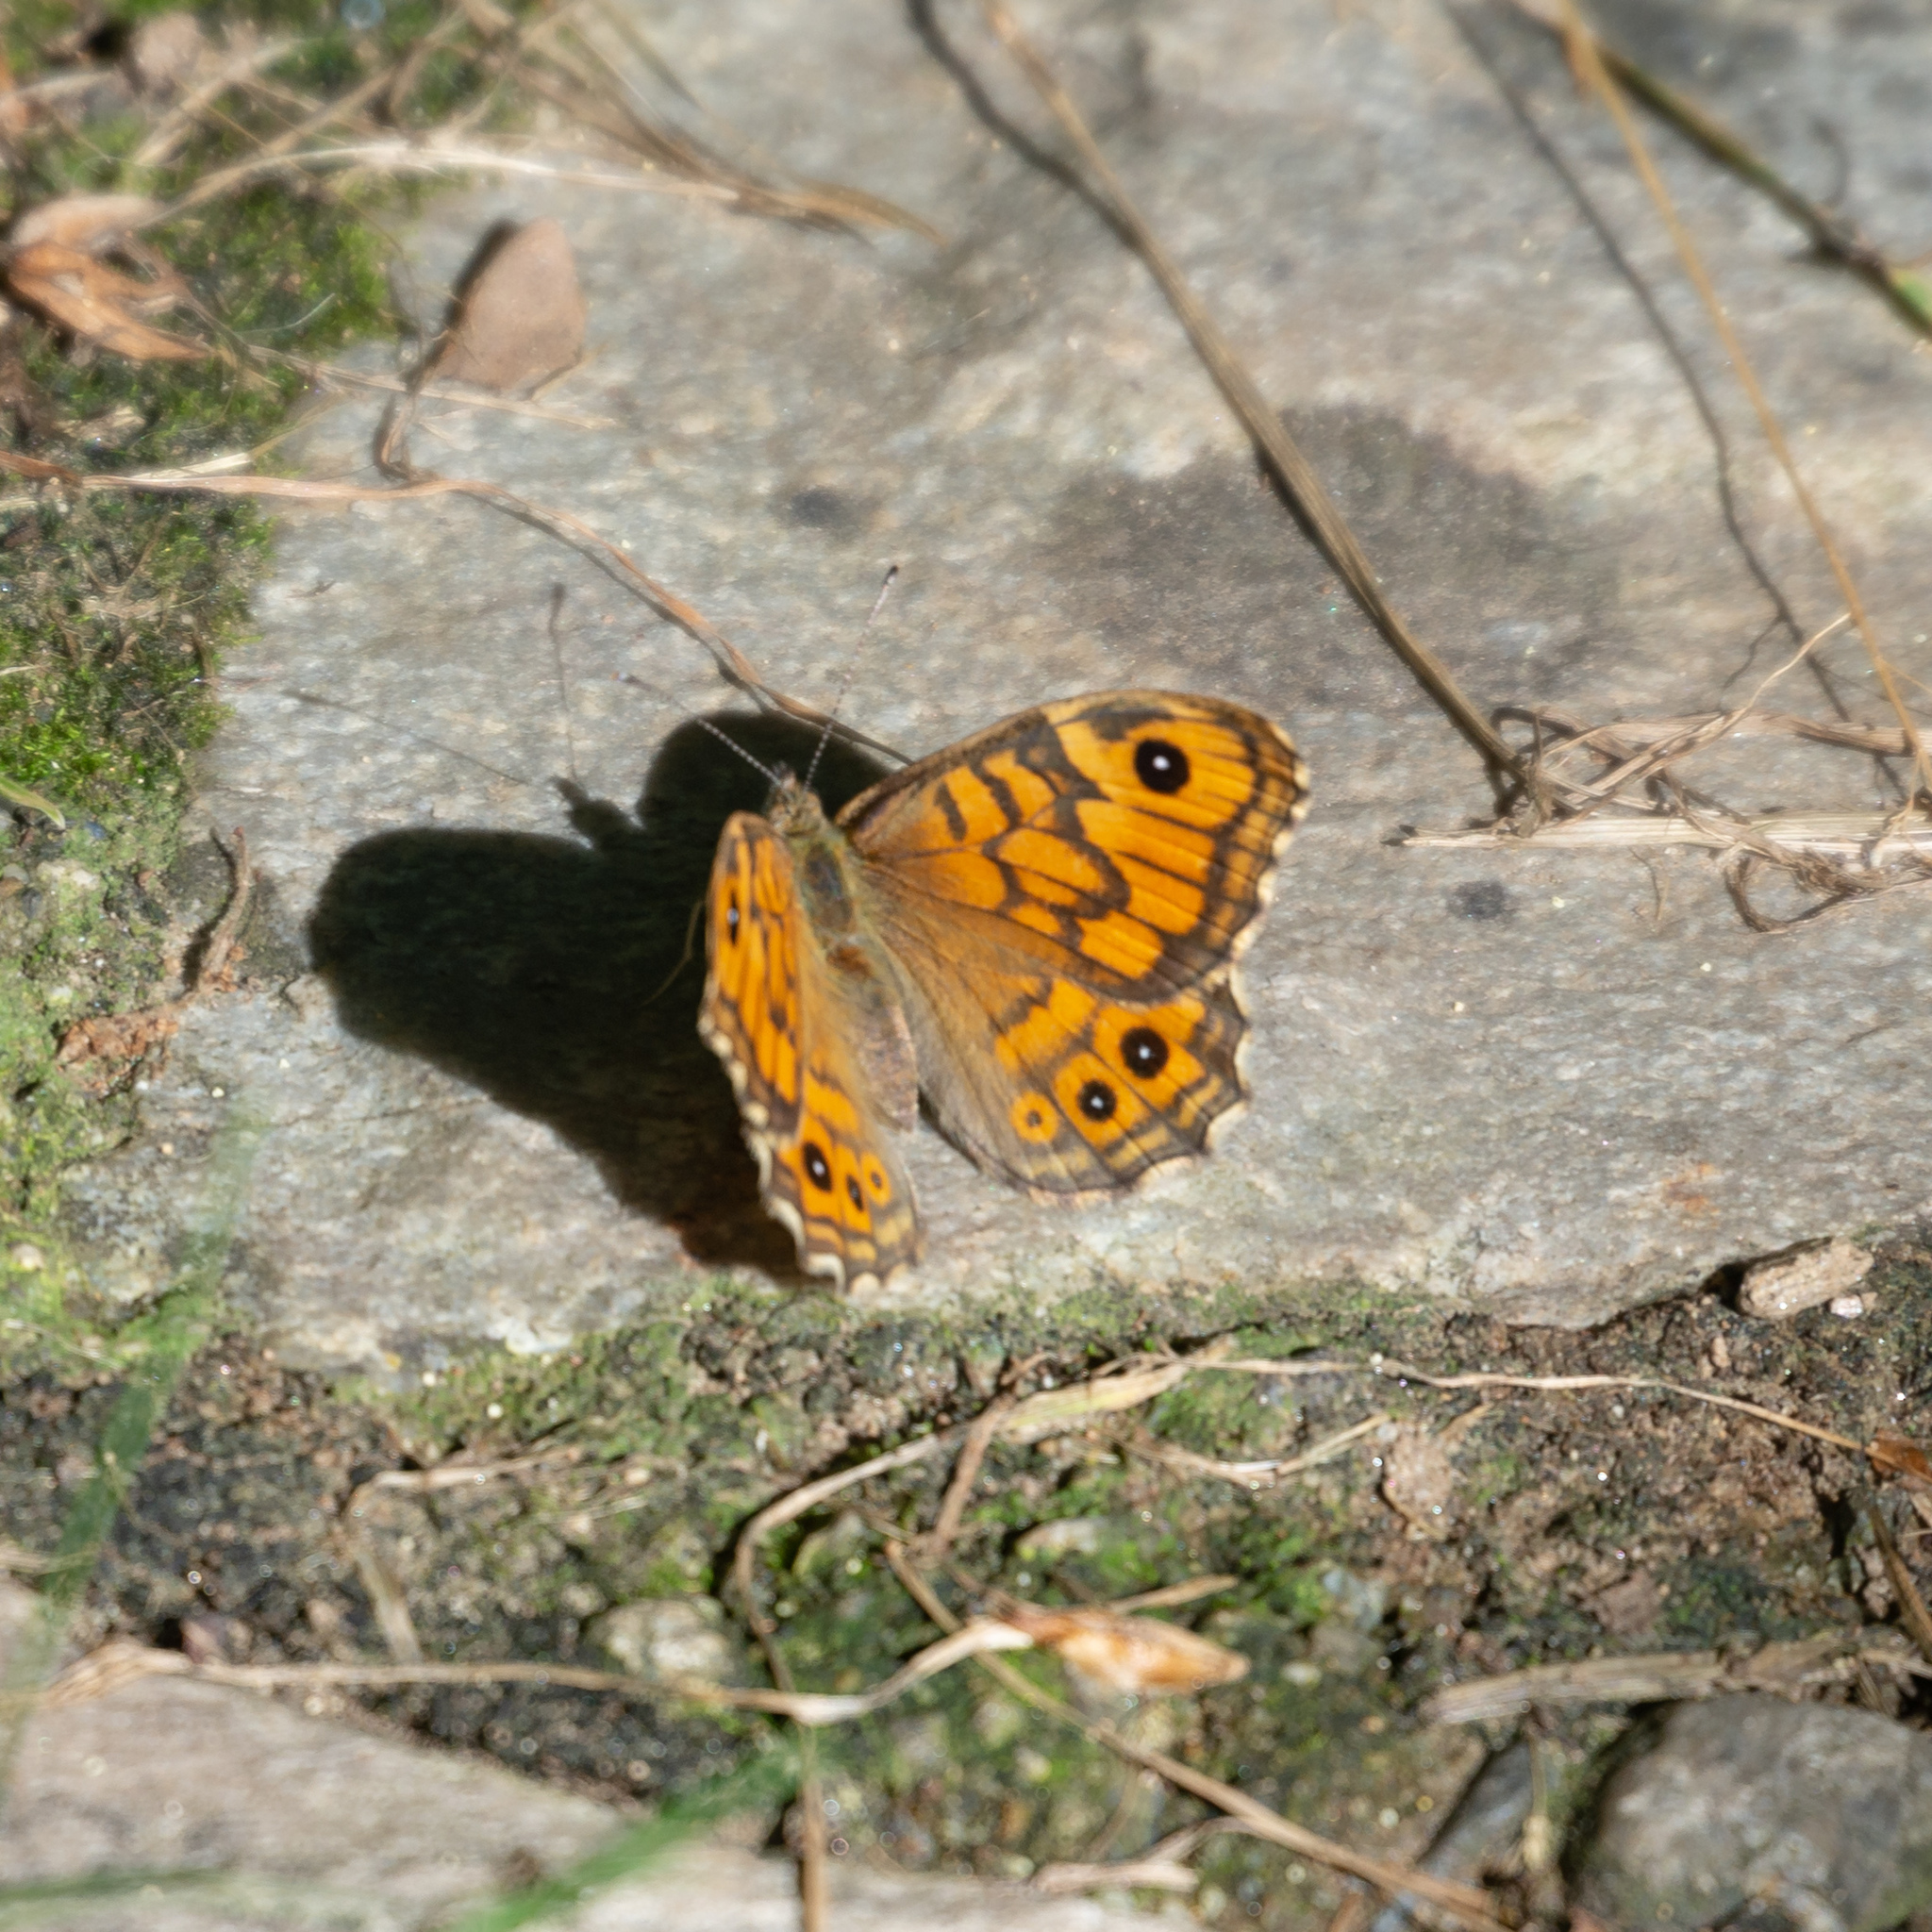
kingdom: Animalia
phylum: Arthropoda
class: Insecta
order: Lepidoptera
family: Nymphalidae
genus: Pararge
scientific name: Pararge Lasiommata megera
